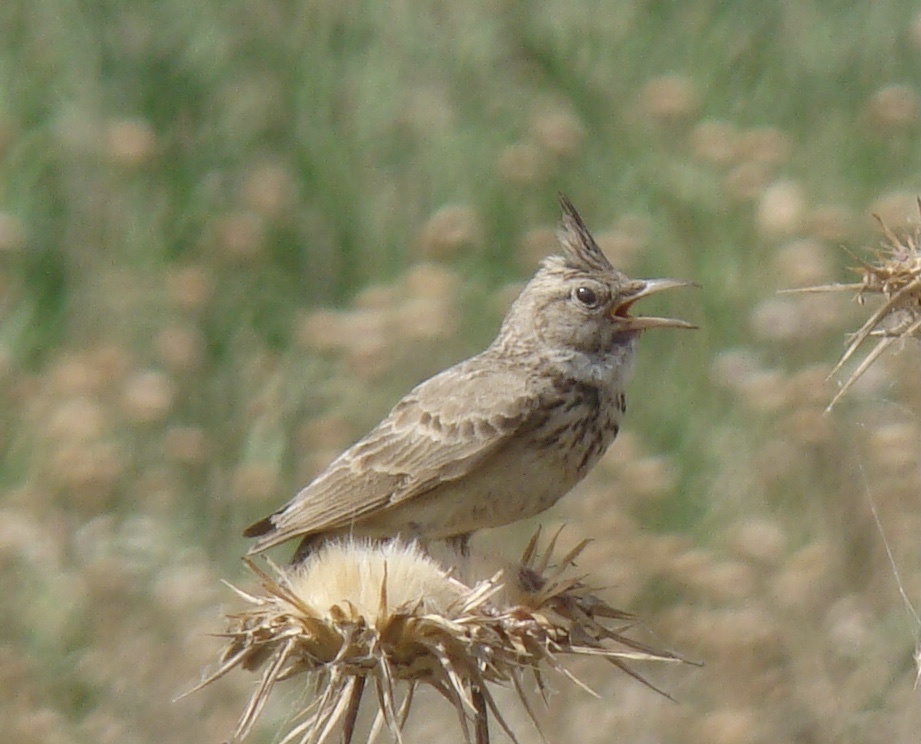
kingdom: Animalia
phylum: Chordata
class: Aves
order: Passeriformes
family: Alaudidae
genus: Galerida
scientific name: Galerida cristata
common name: Crested lark
